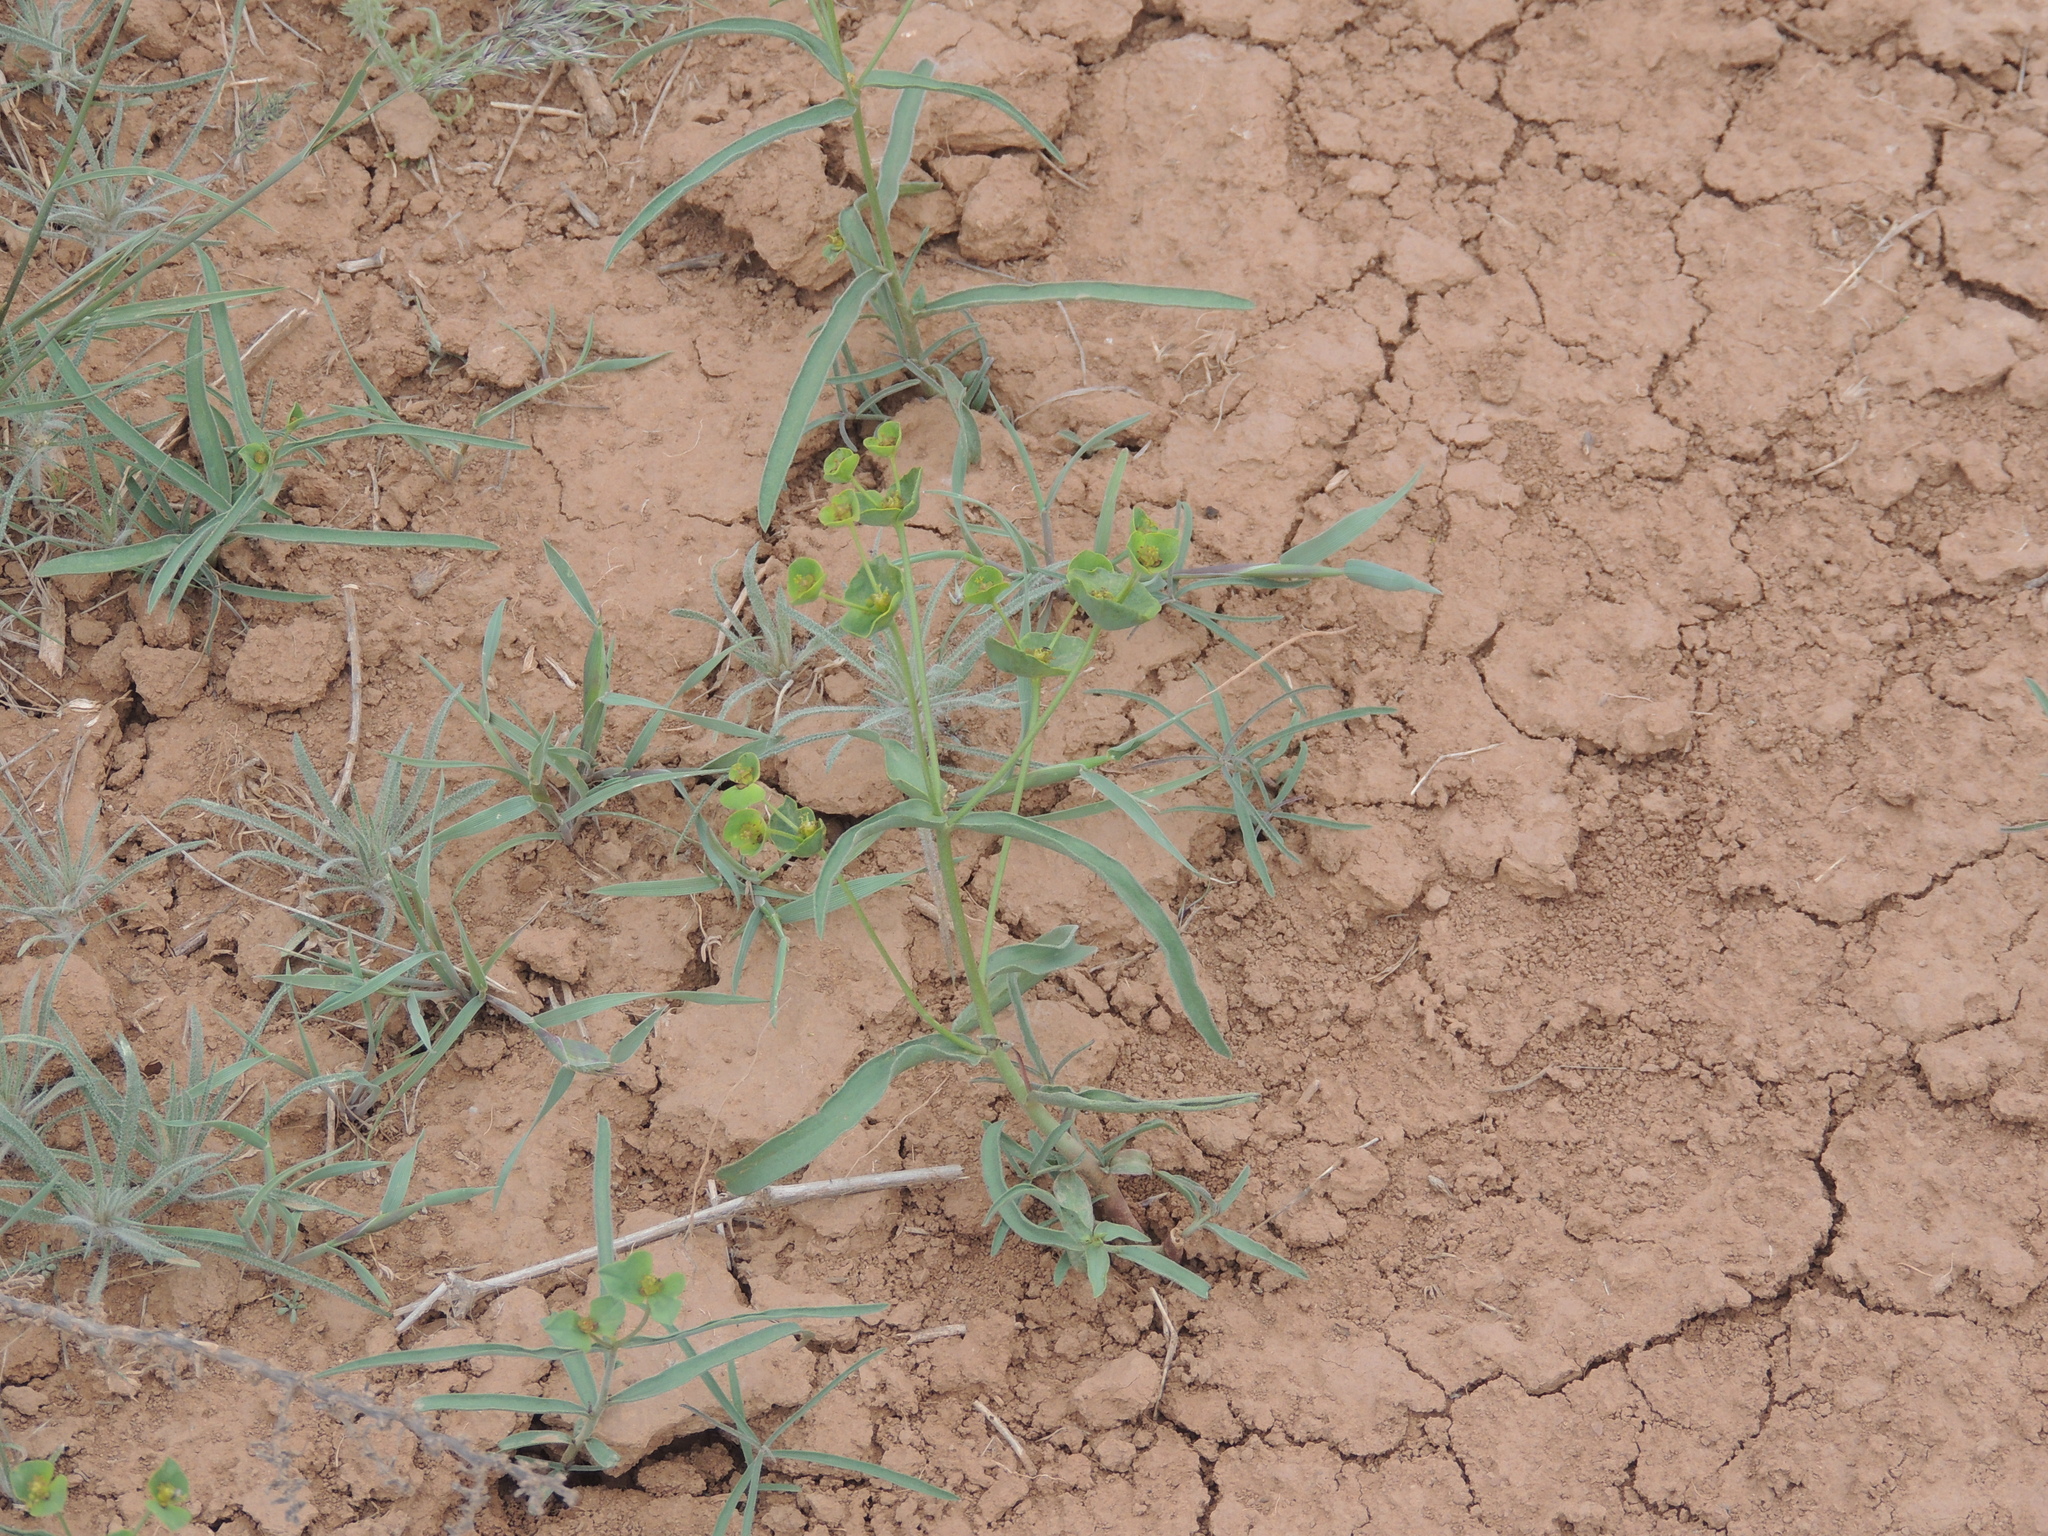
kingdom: Plantae
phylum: Tracheophyta
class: Magnoliopsida
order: Malpighiales
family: Euphorbiaceae
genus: Euphorbia
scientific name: Euphorbia praecox
